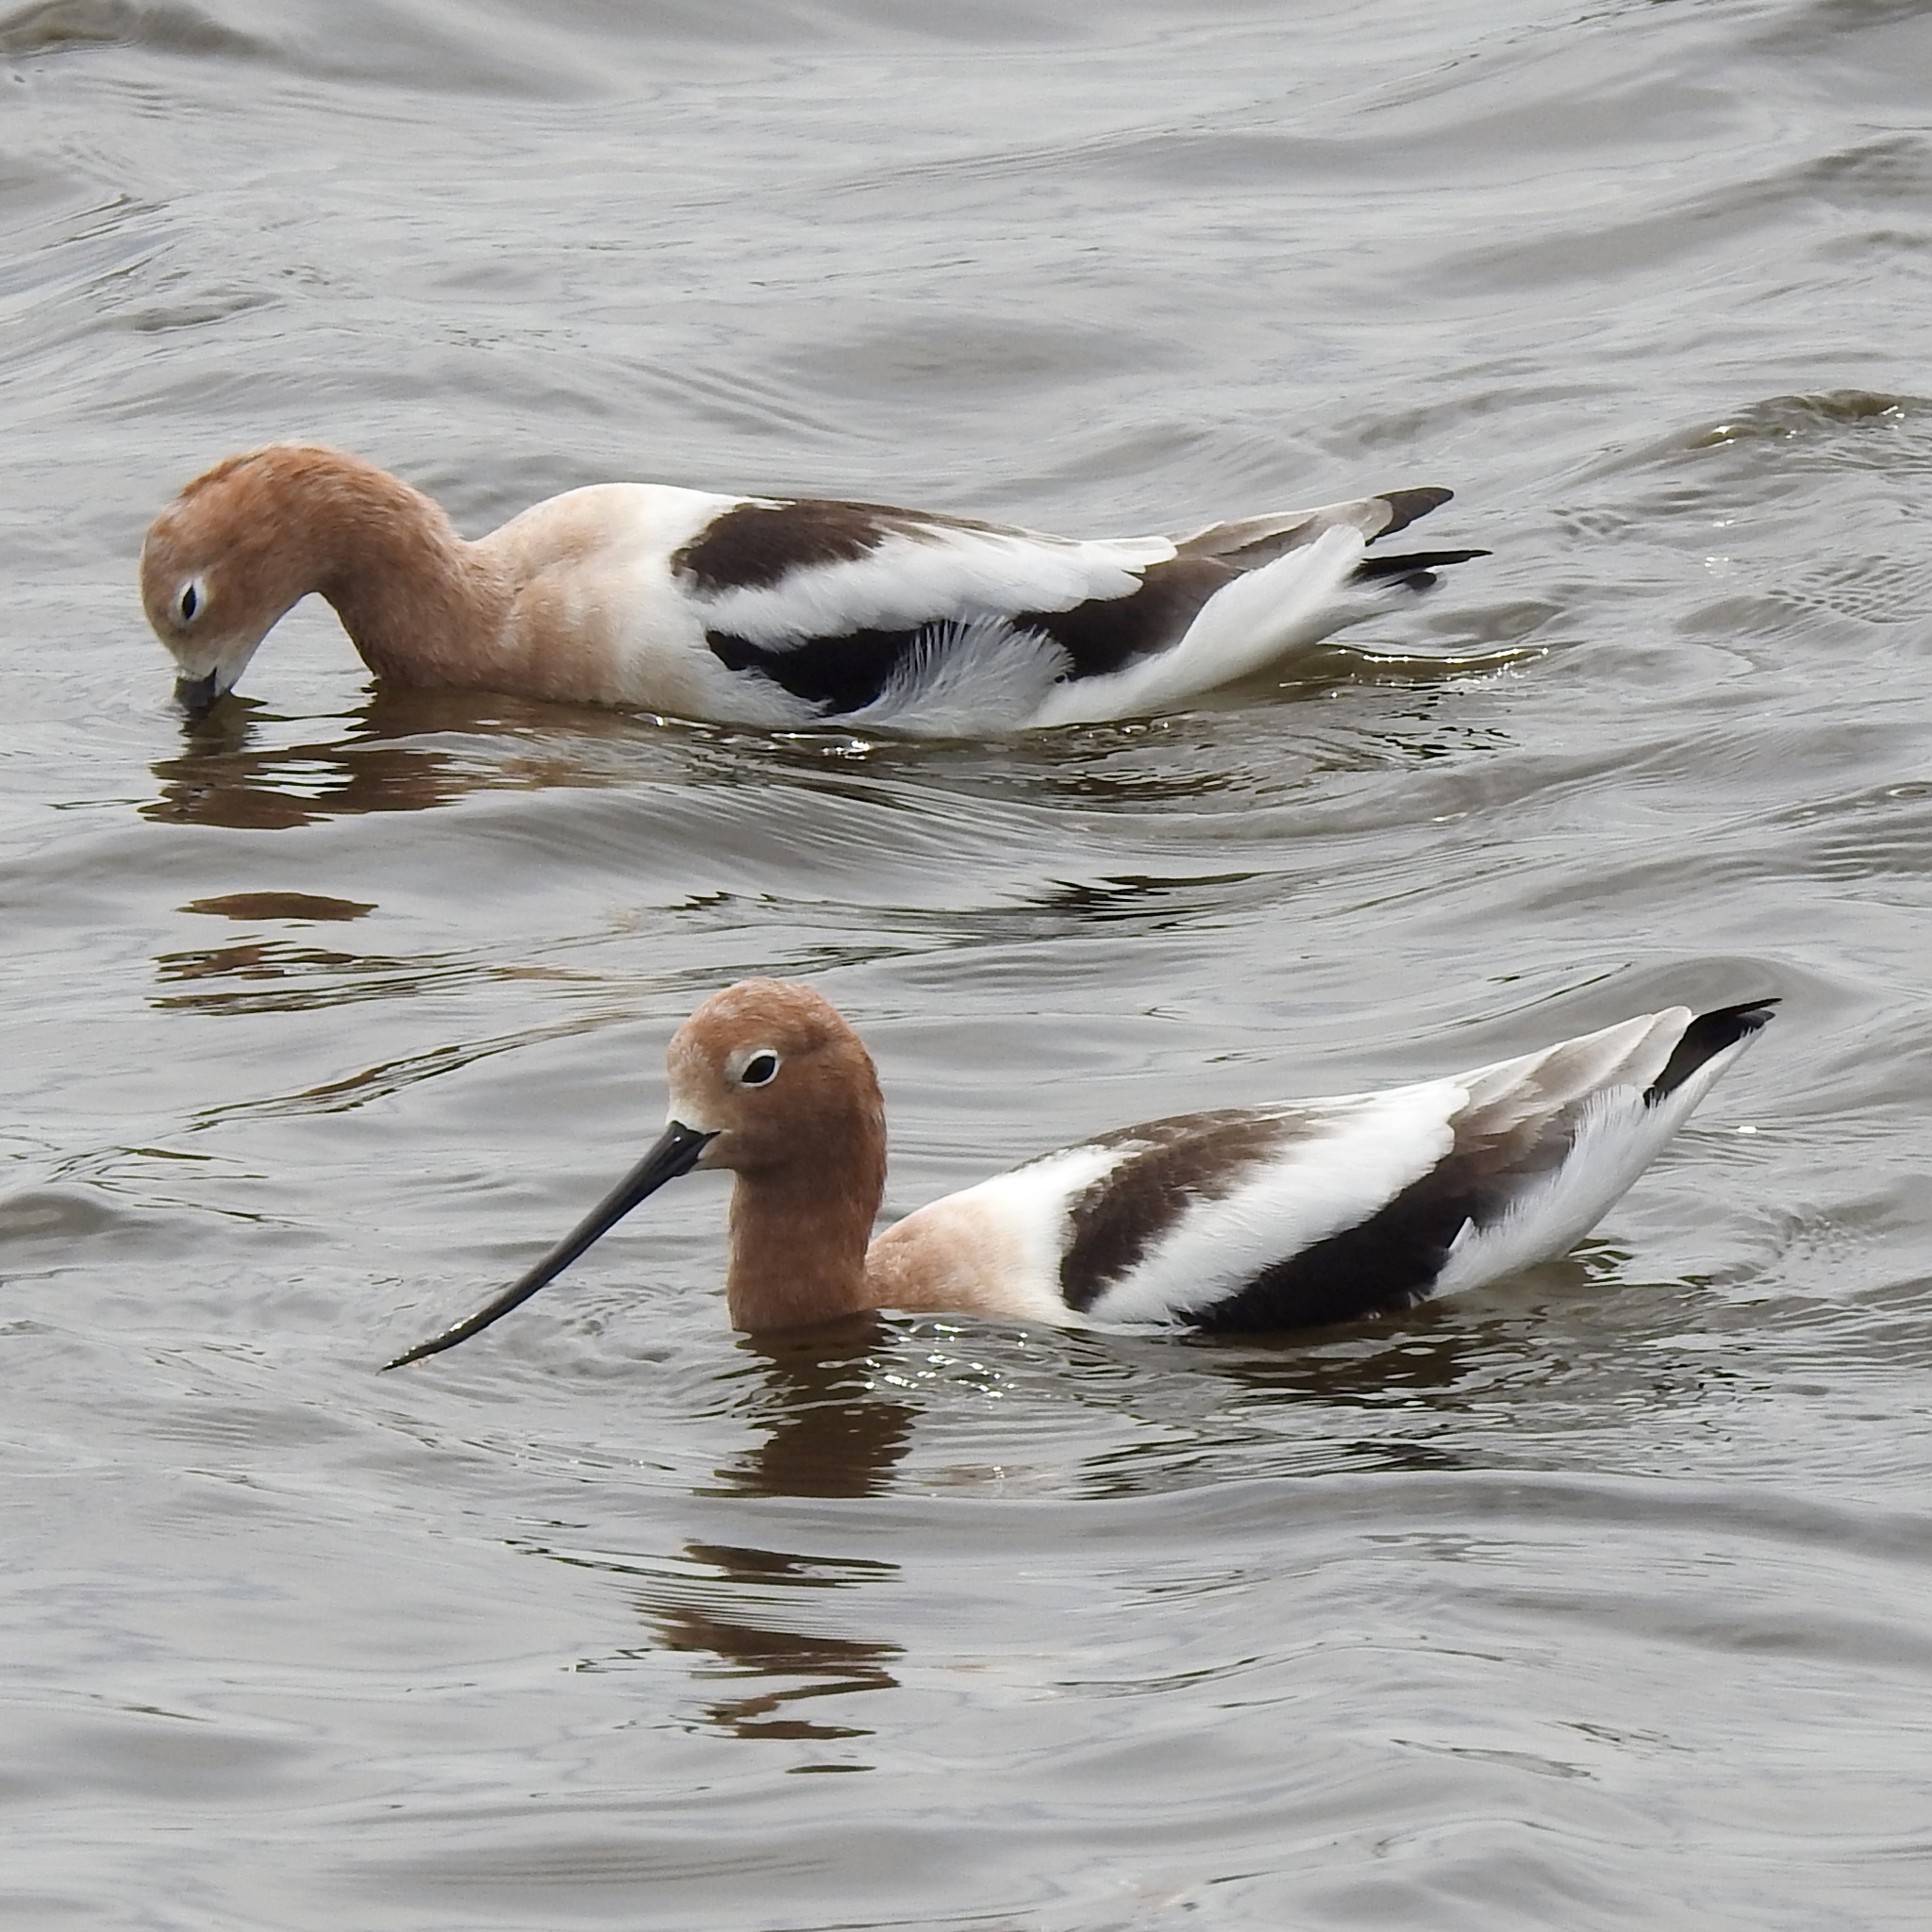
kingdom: Animalia
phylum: Chordata
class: Aves
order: Charadriiformes
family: Recurvirostridae
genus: Recurvirostra
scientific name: Recurvirostra americana
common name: American avocet
